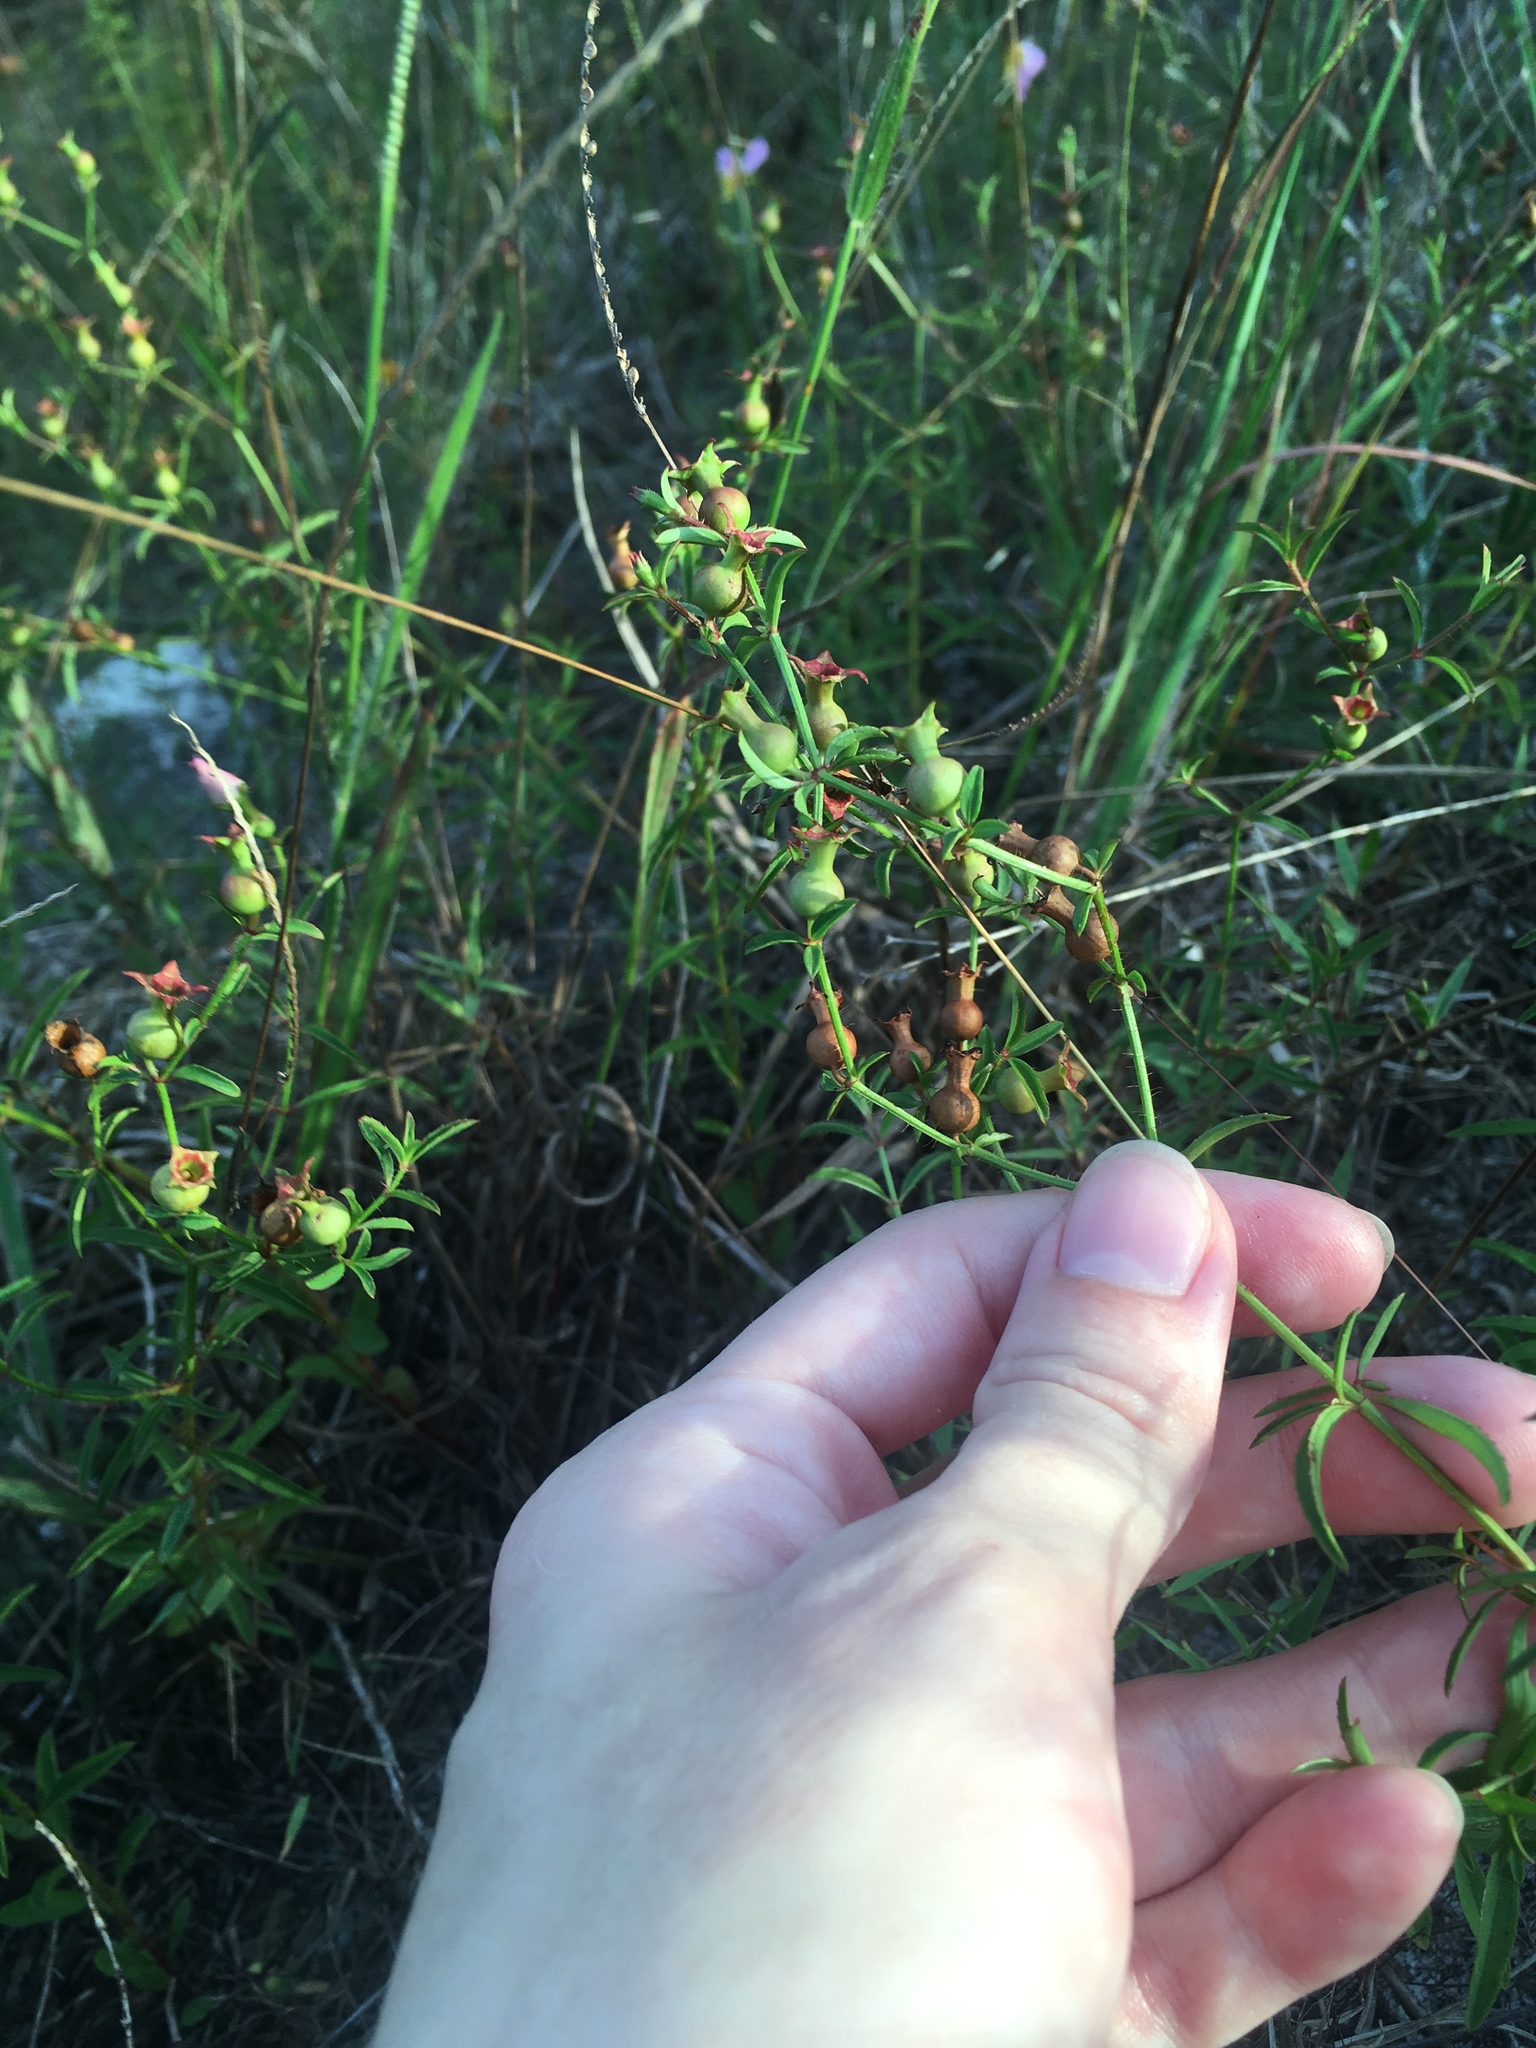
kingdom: Plantae
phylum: Tracheophyta
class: Magnoliopsida
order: Myrtales
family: Melastomataceae
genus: Rhexia
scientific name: Rhexia mariana
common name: Dull meadow-pitcher
